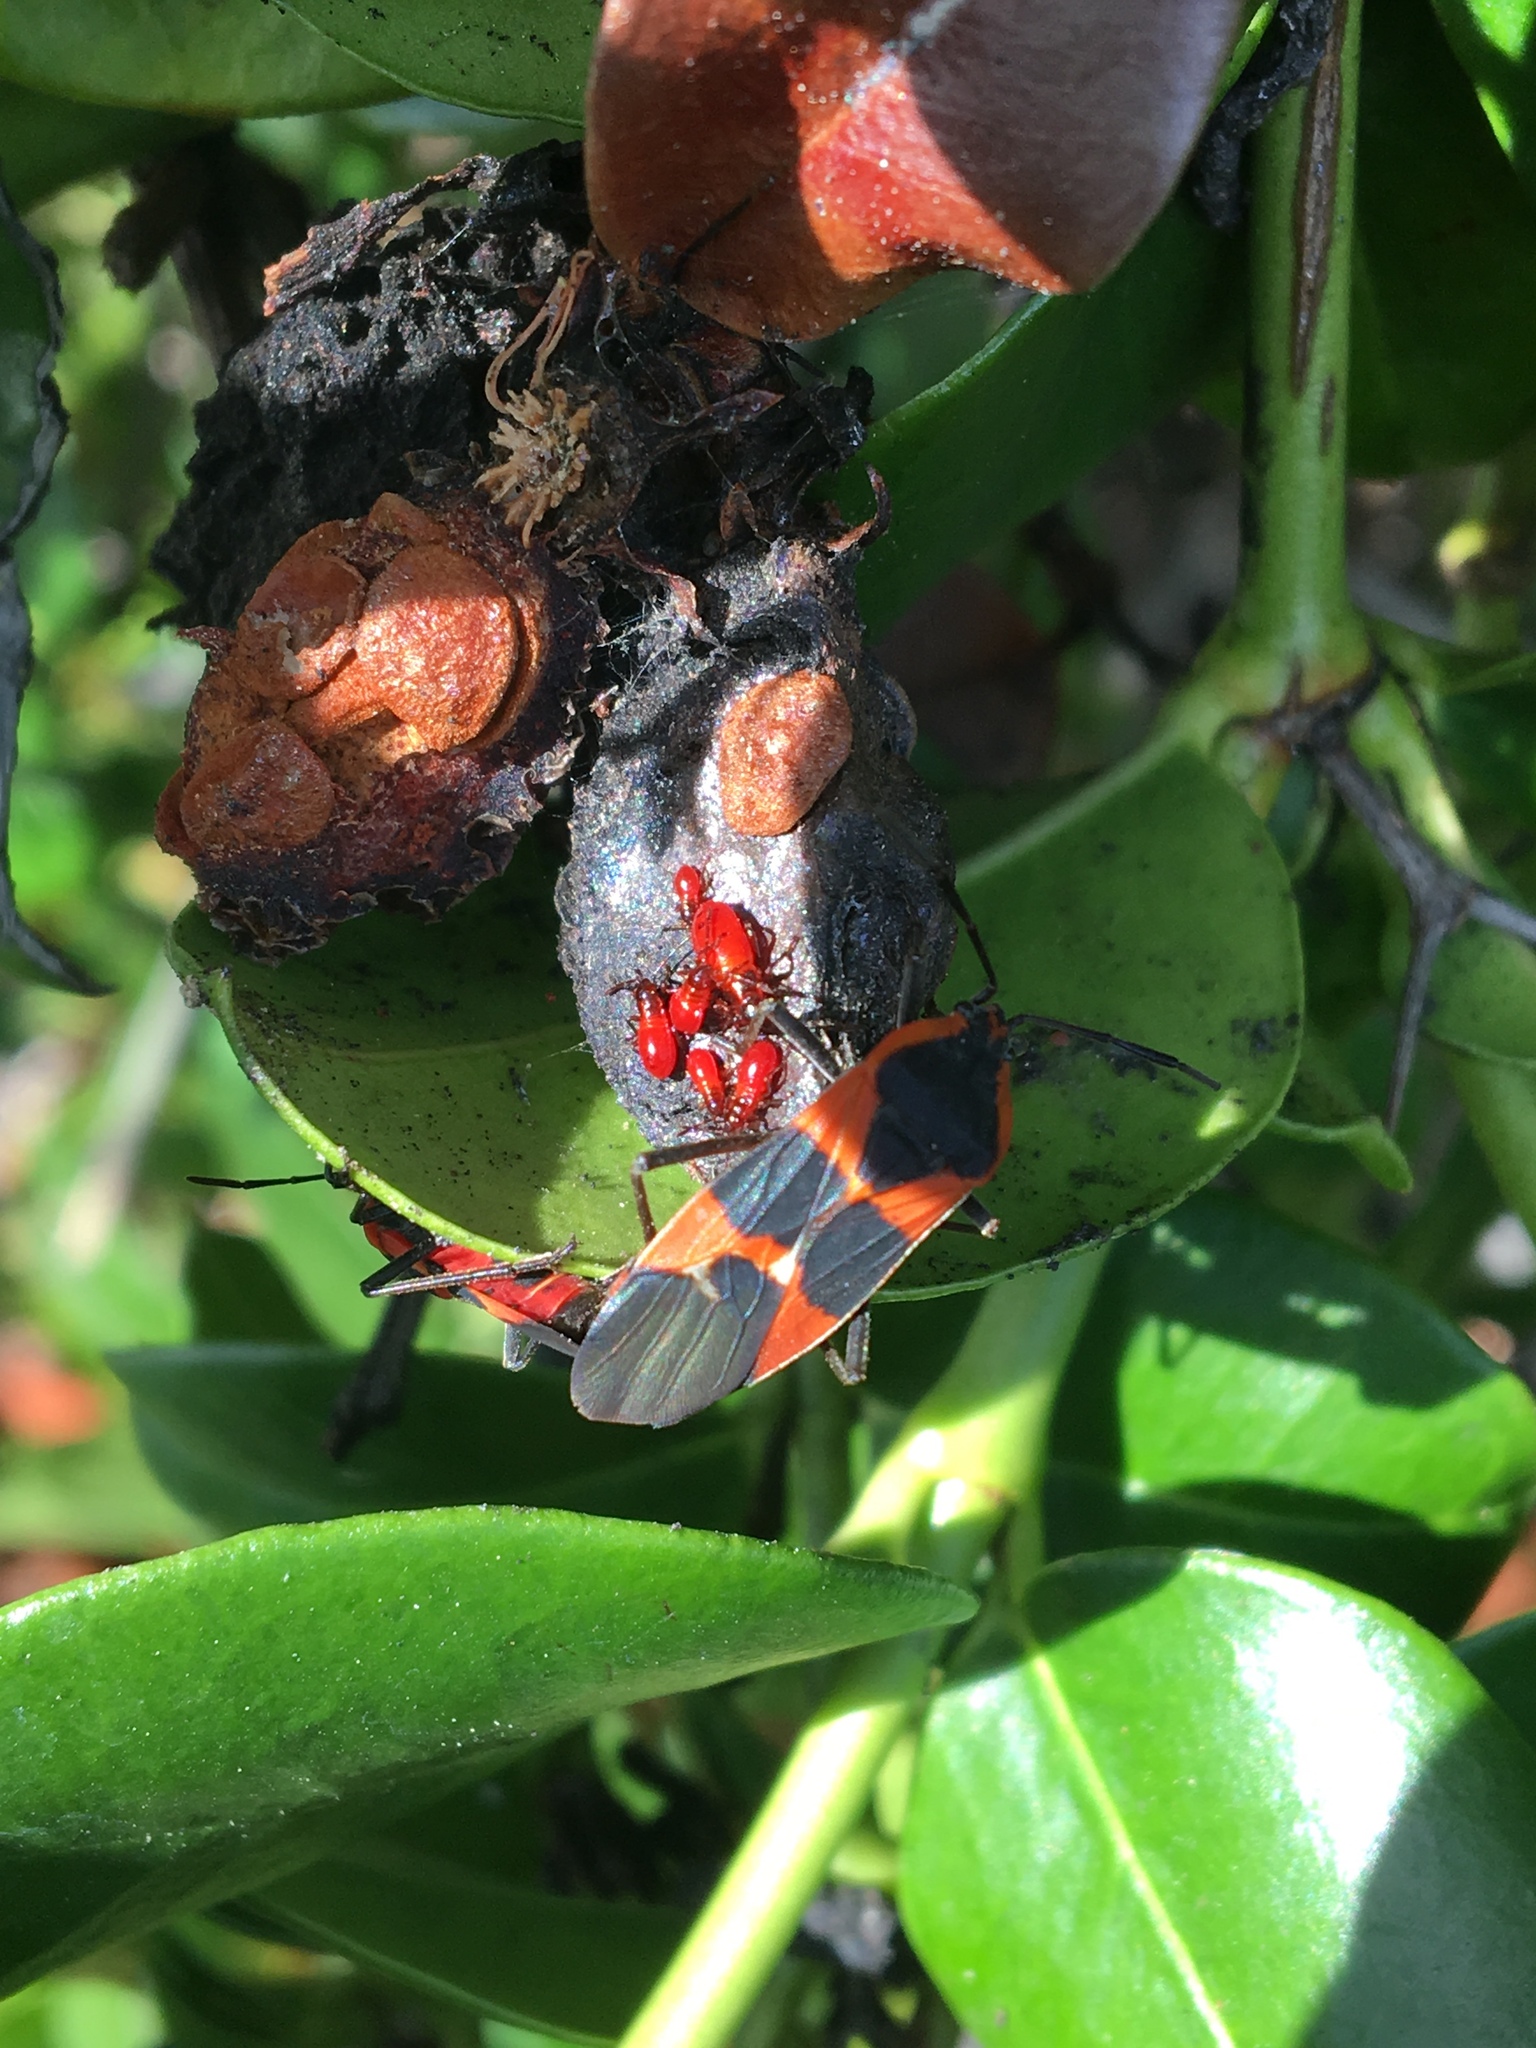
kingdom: Animalia
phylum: Arthropoda
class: Insecta
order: Hemiptera
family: Lygaeidae
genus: Oncopeltus
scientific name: Oncopeltus fasciatus
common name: Large milkweed bug
